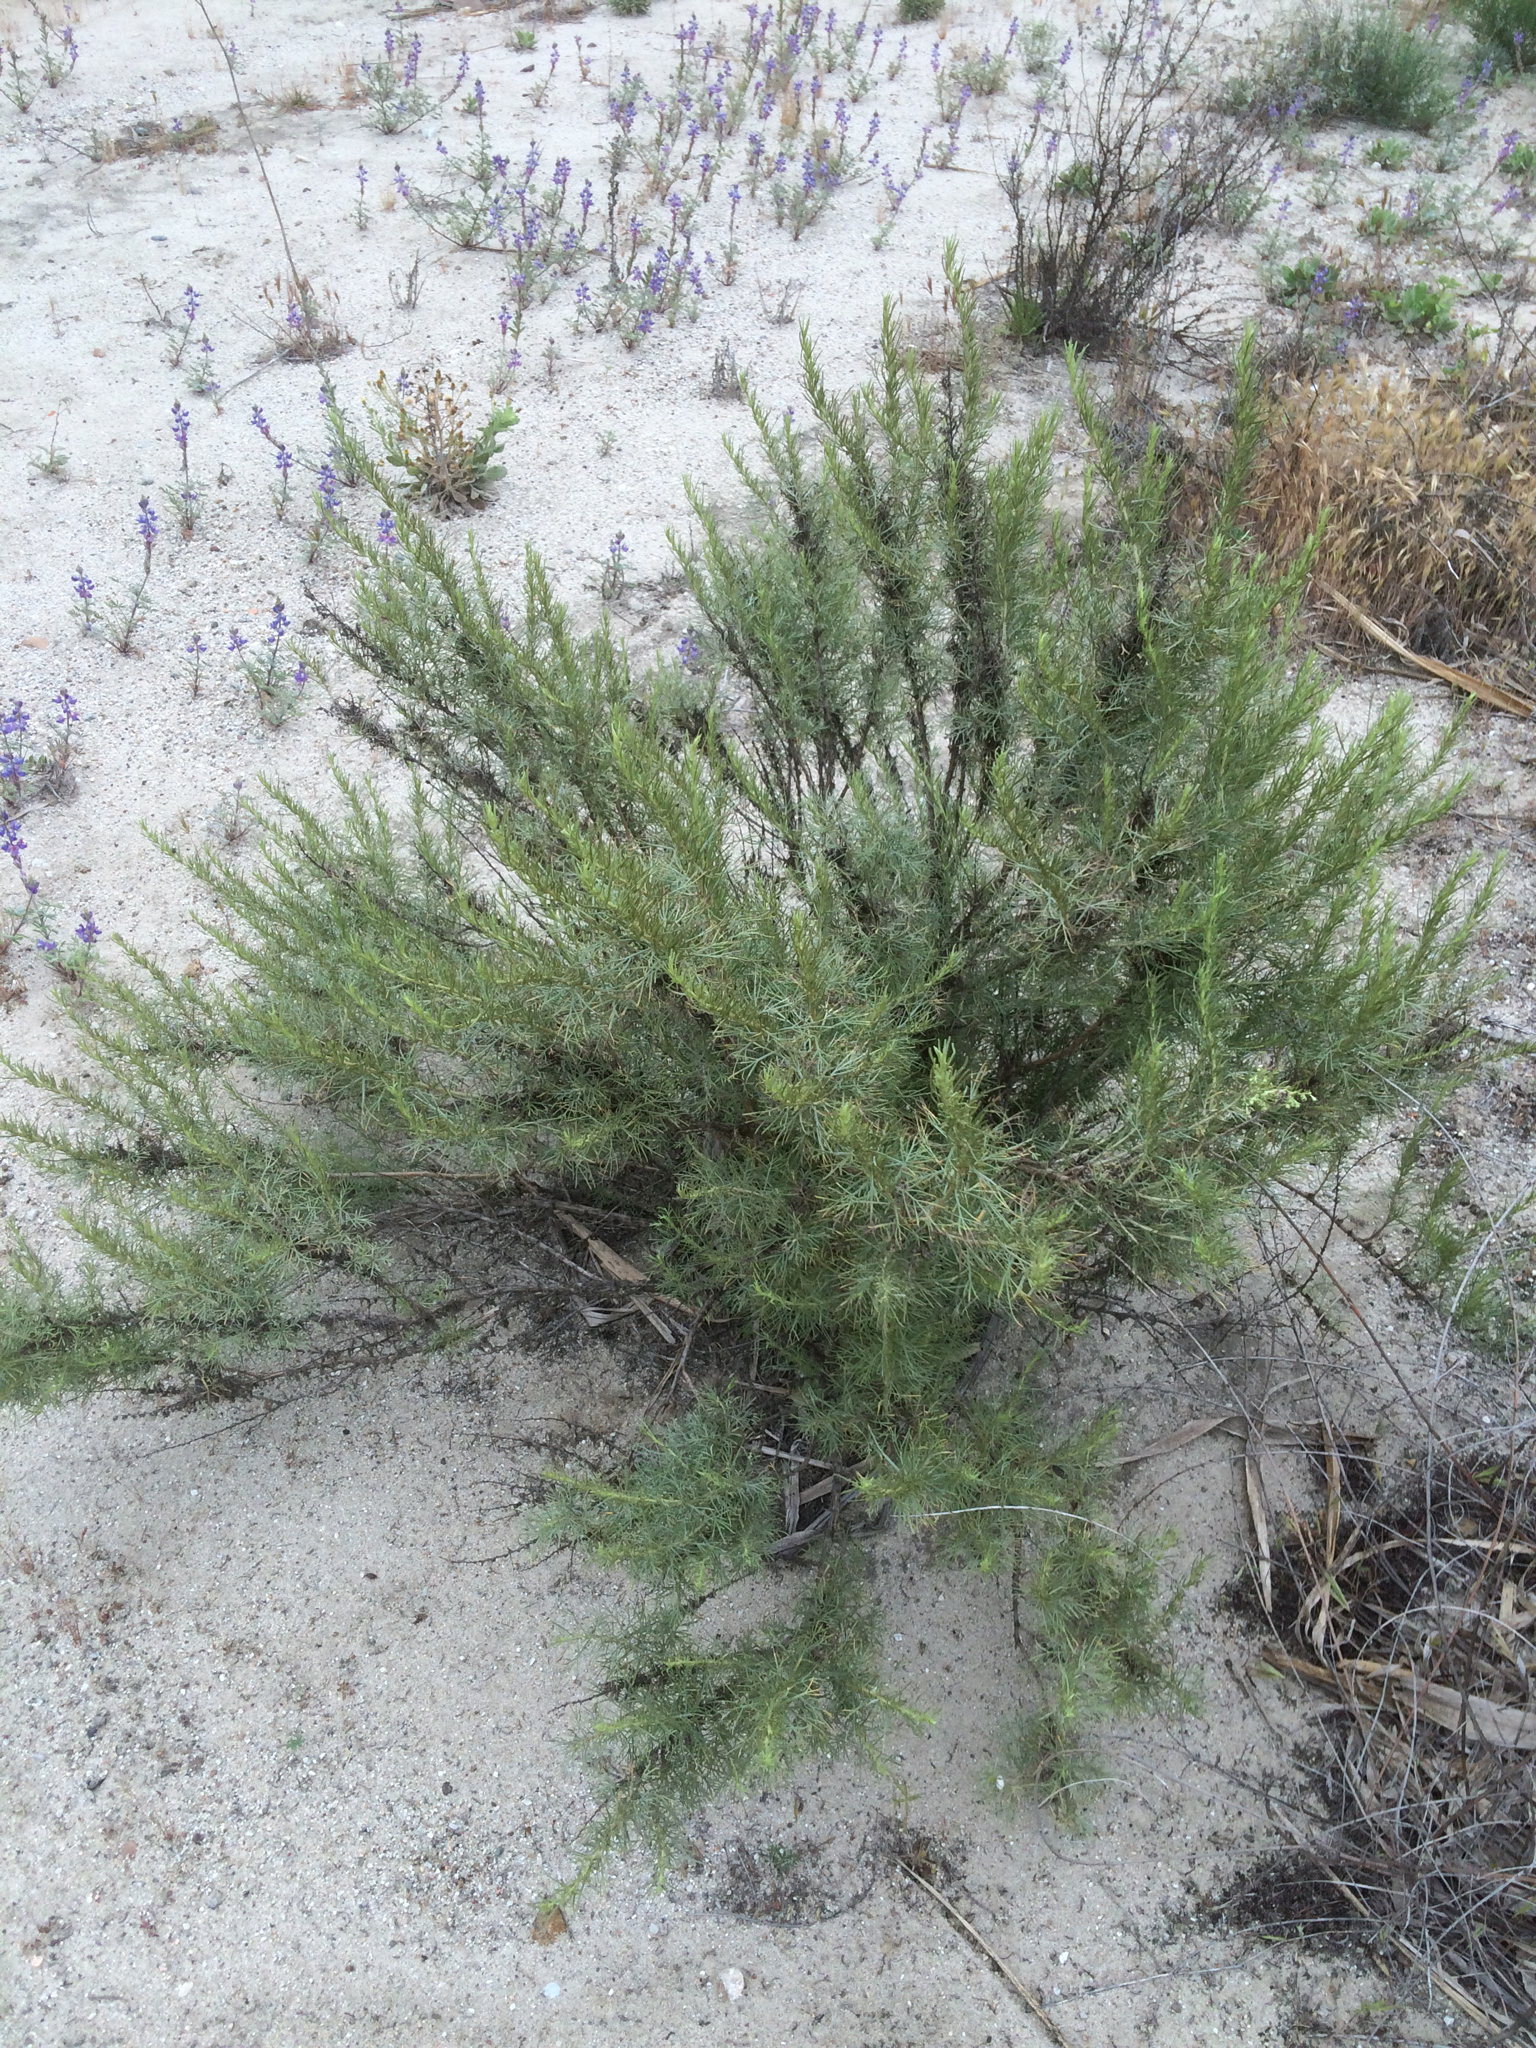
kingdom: Plantae
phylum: Tracheophyta
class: Magnoliopsida
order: Asterales
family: Asteraceae
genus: Artemisia
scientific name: Artemisia californica
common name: California sagebrush
